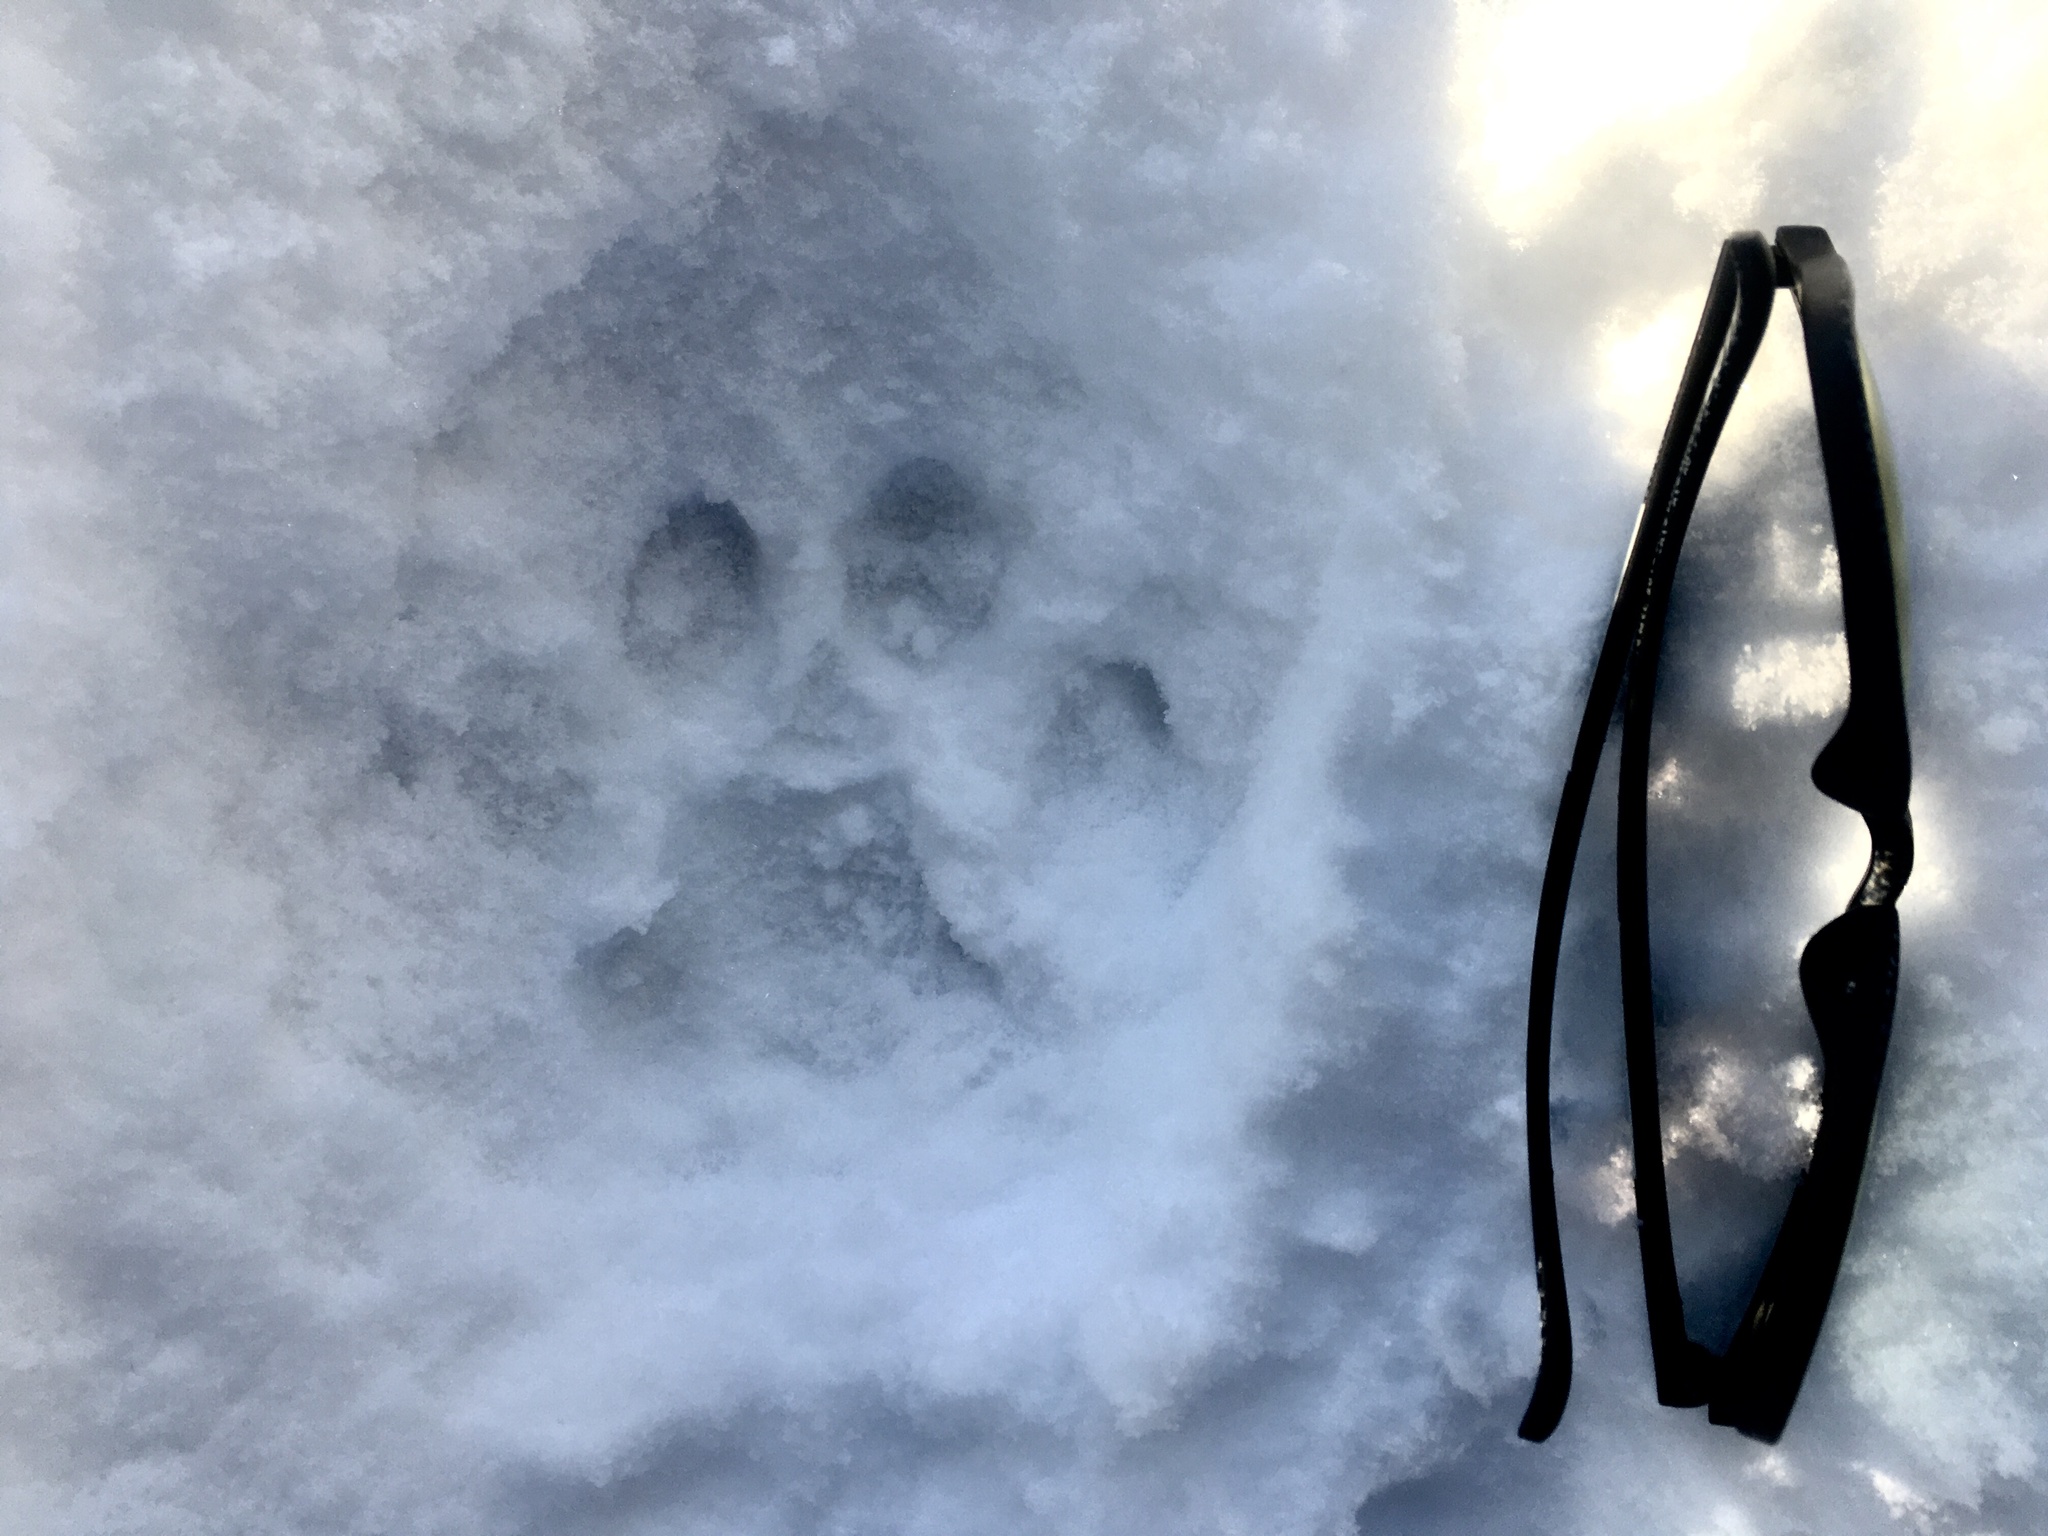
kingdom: Animalia
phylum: Chordata
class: Mammalia
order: Carnivora
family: Felidae
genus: Puma
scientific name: Puma concolor
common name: Puma
